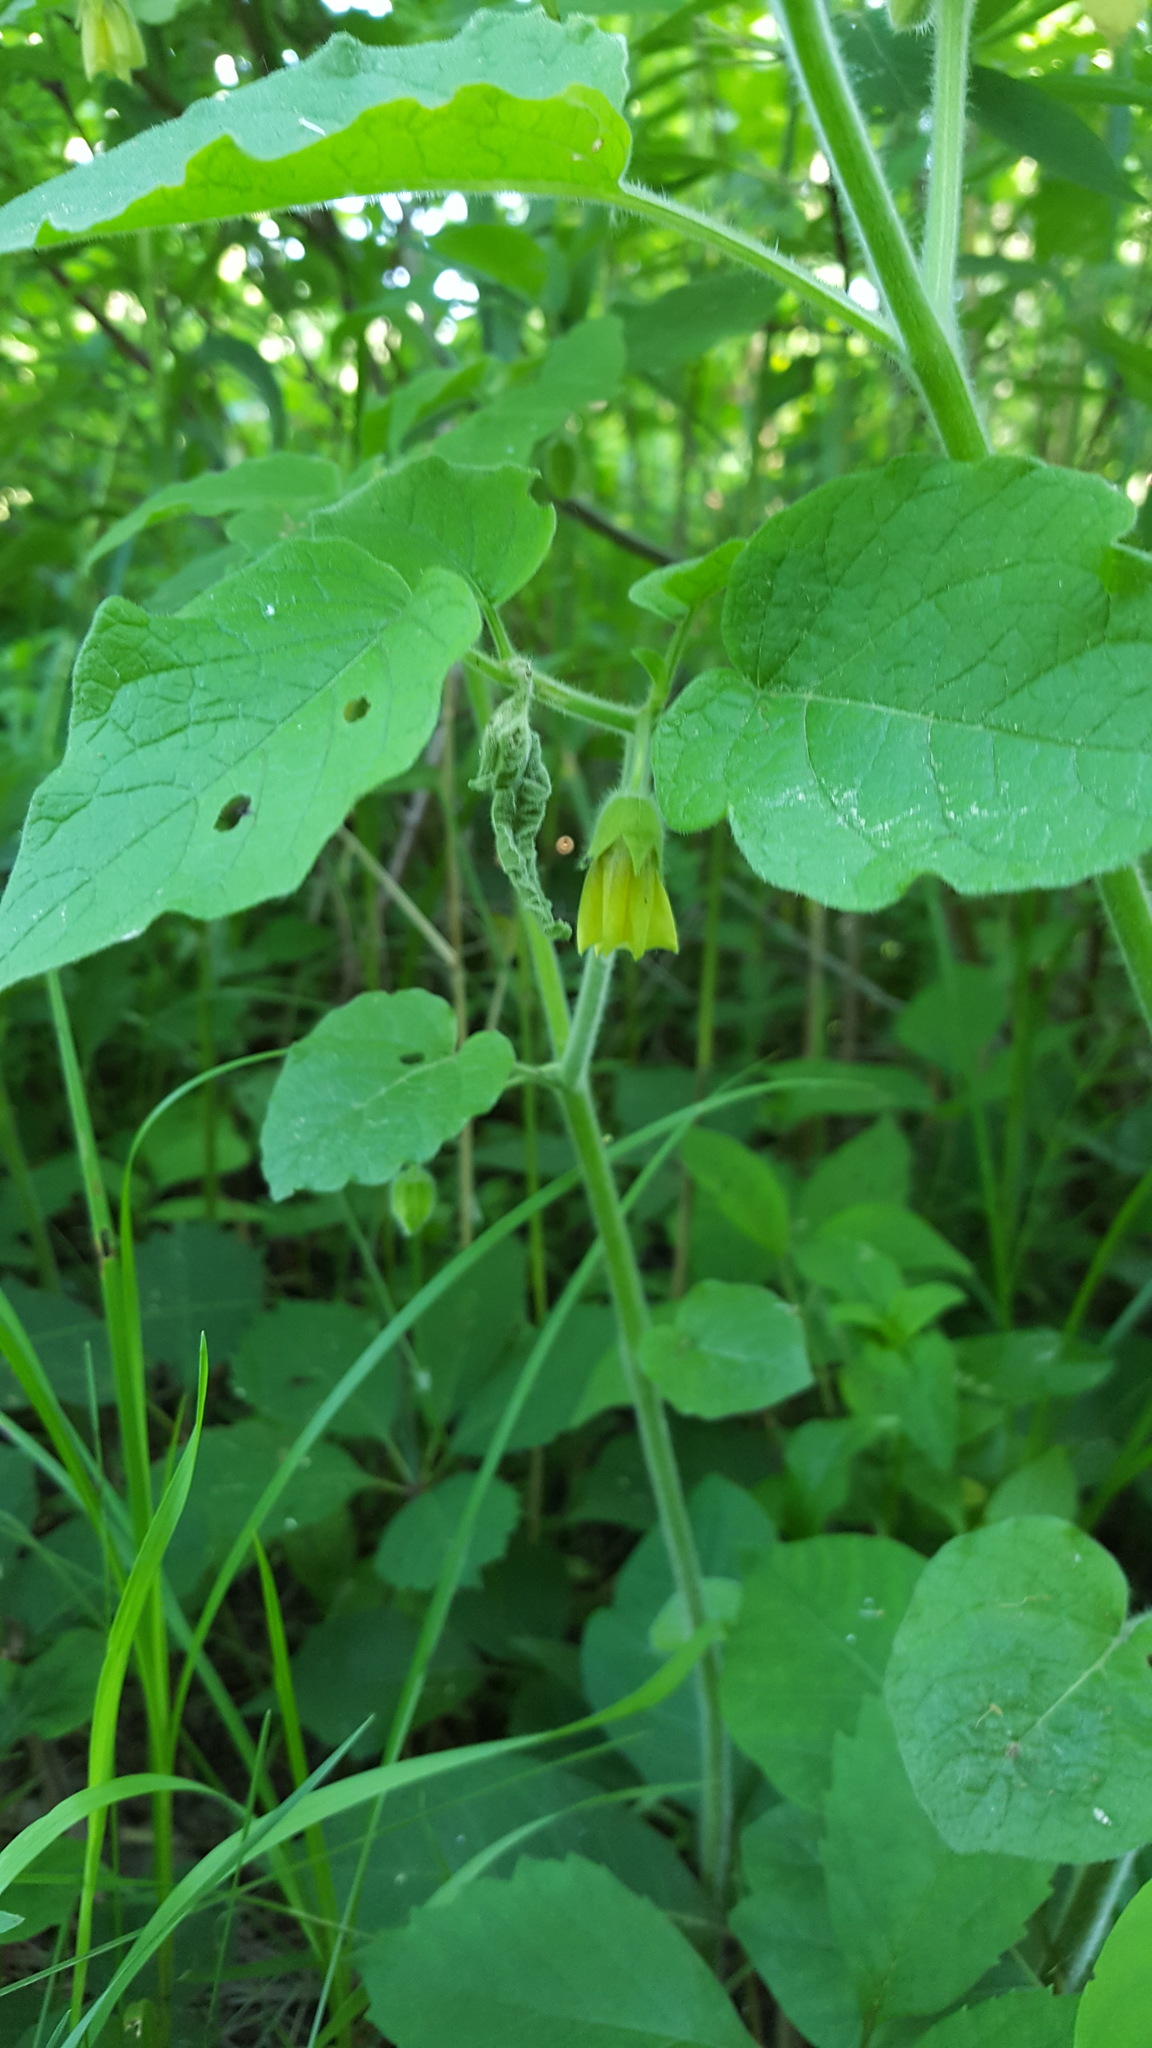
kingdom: Plantae
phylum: Tracheophyta
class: Magnoliopsida
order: Solanales
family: Solanaceae
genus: Physalis
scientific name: Physalis heterophylla
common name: Clammy ground-cherry
